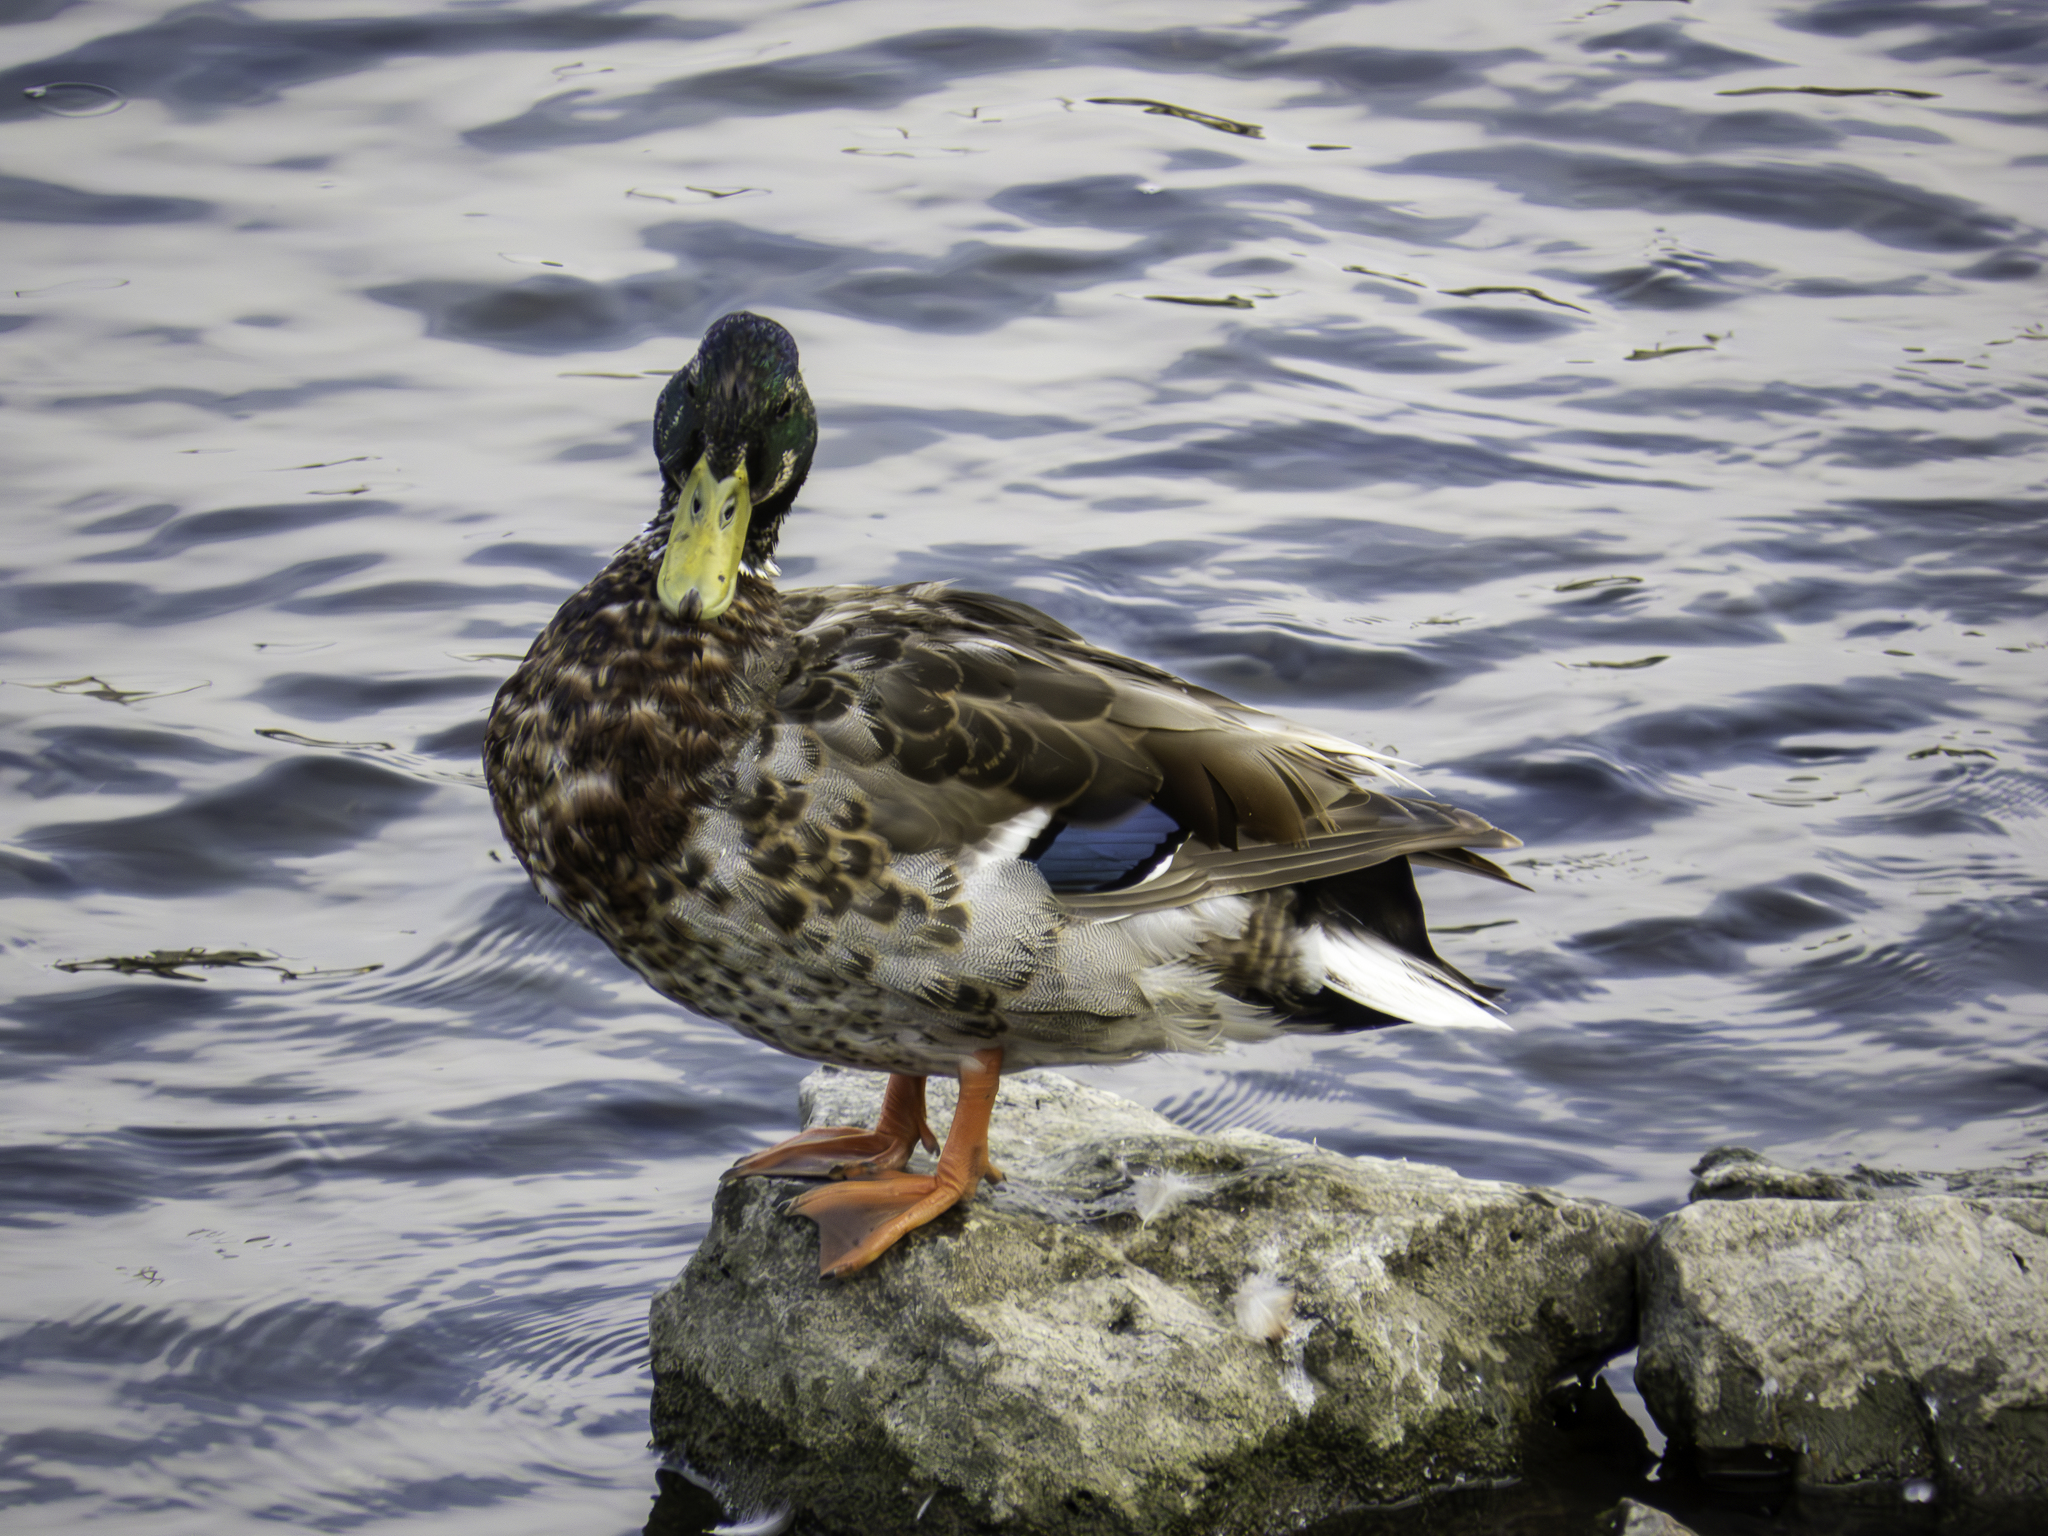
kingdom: Animalia
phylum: Chordata
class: Aves
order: Anseriformes
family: Anatidae
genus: Anas
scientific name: Anas platyrhynchos
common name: Mallard
